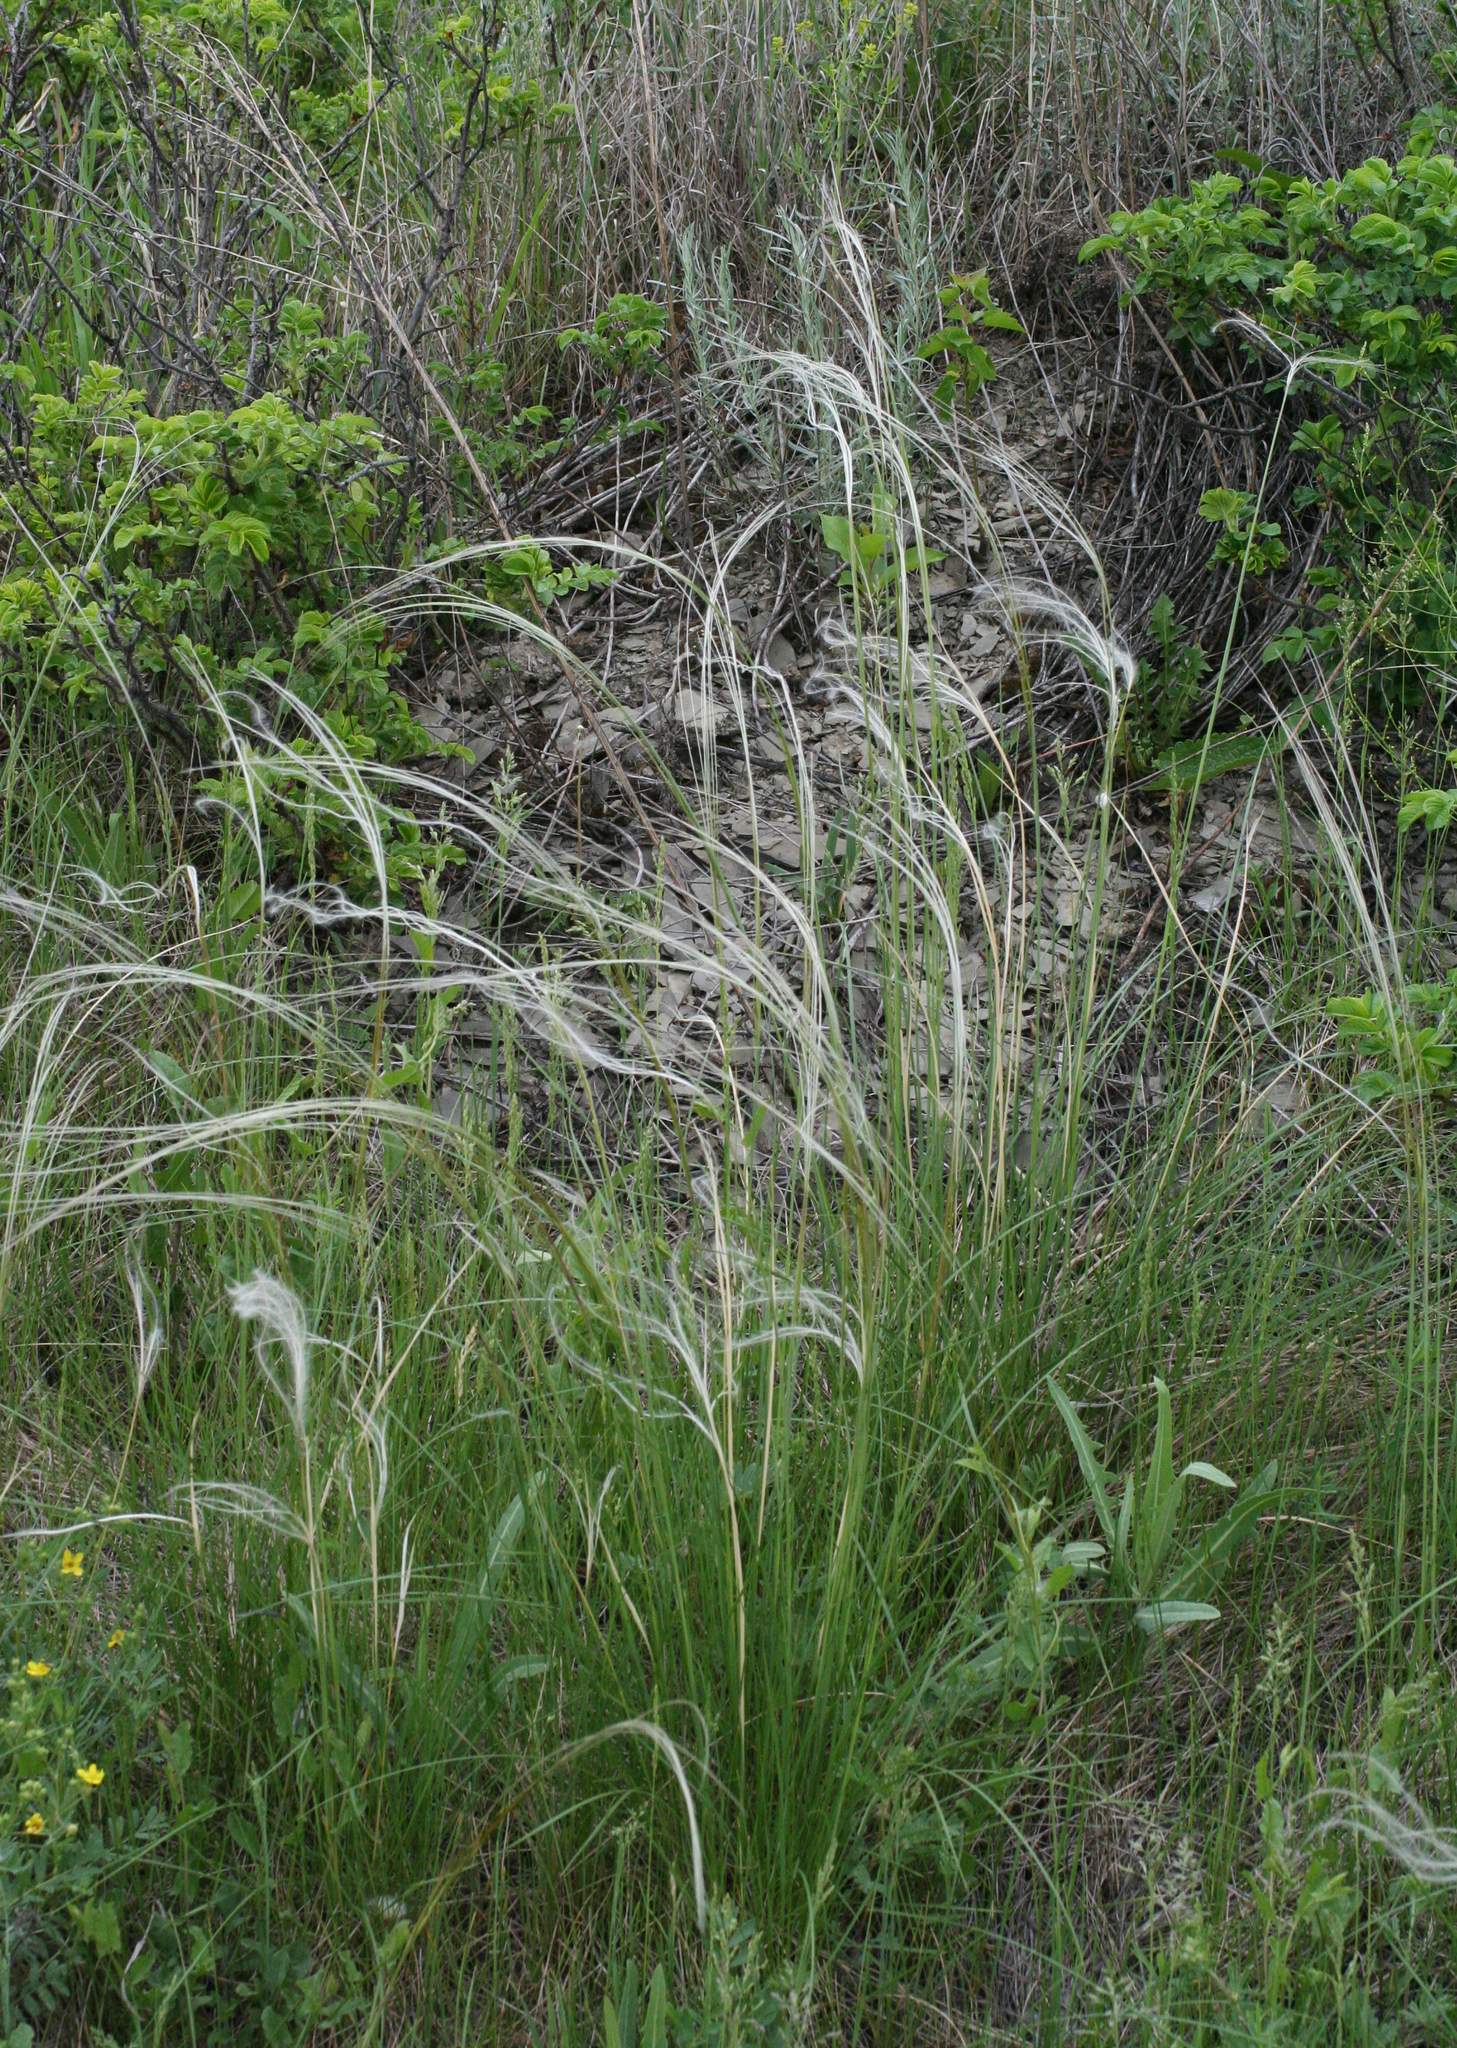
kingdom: Plantae
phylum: Tracheophyta
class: Liliopsida
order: Poales
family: Poaceae
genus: Stipa
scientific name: Stipa pennata
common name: European feather grass
